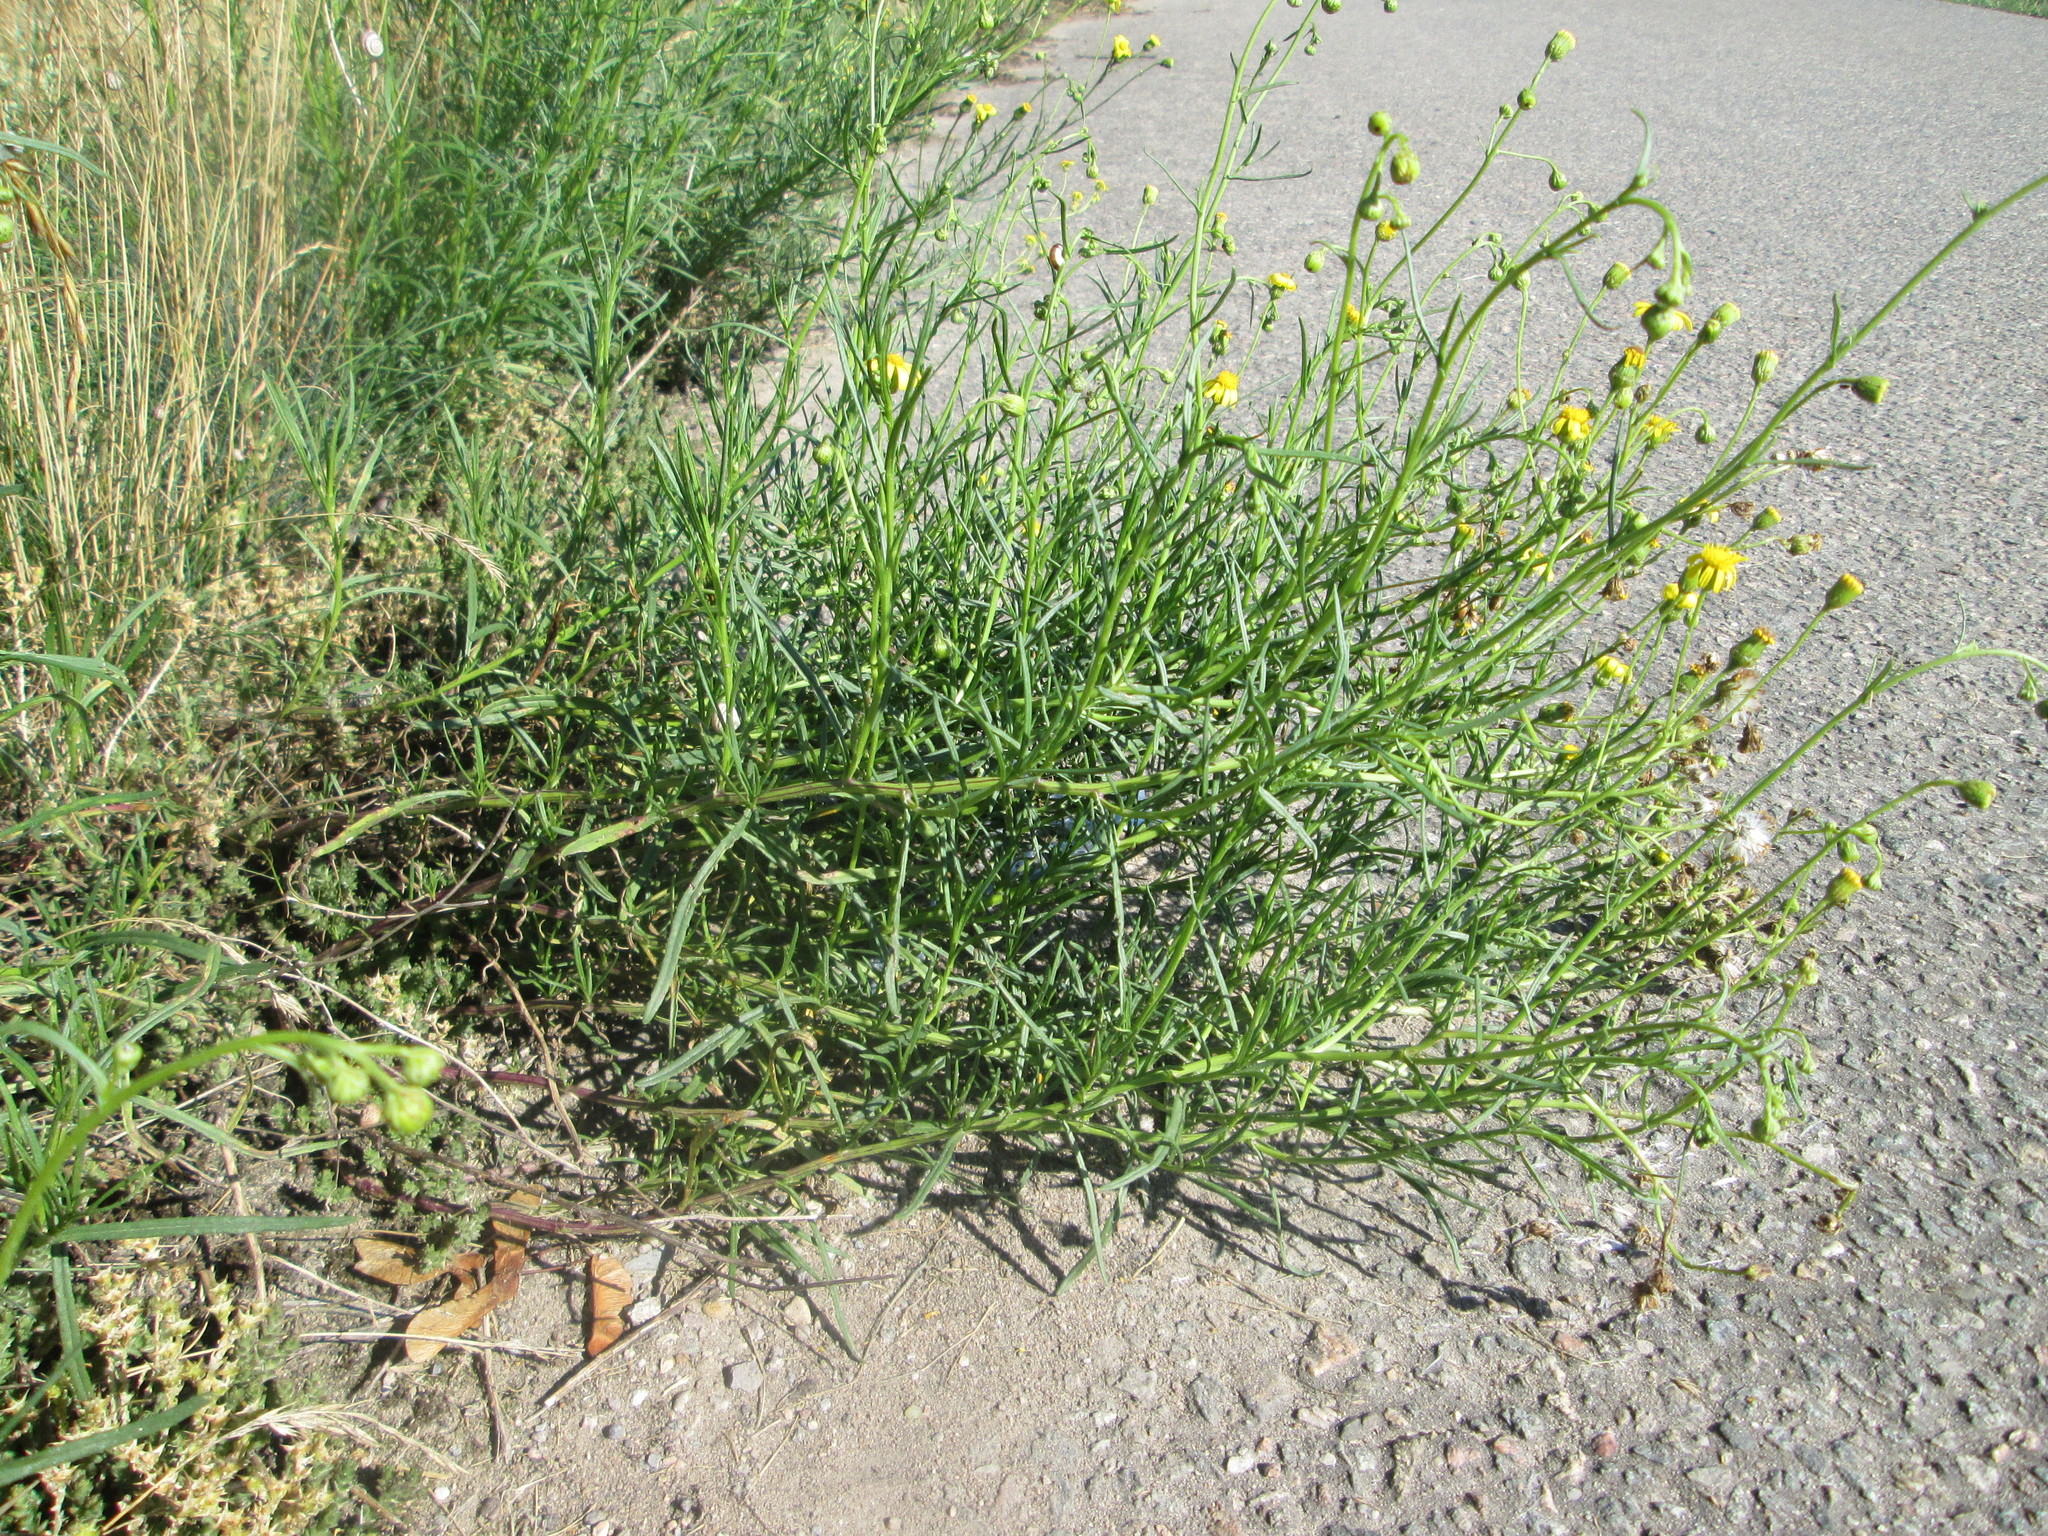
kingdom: Plantae
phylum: Tracheophyta
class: Magnoliopsida
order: Asterales
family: Asteraceae
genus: Senecio
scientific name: Senecio inaequidens
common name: Narrow-leaved ragwort
